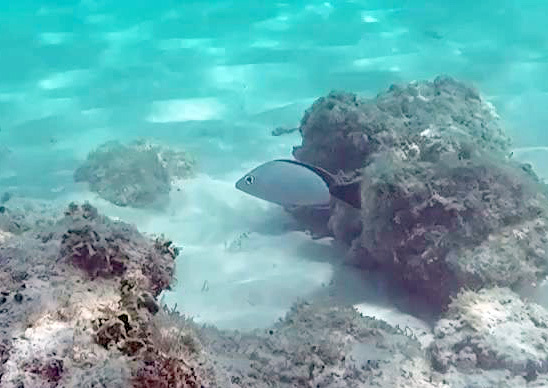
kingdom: Animalia
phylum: Chordata
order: Perciformes
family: Lutjanidae
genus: Lutjanus
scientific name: Lutjanus gibbus
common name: Humpback snapper
